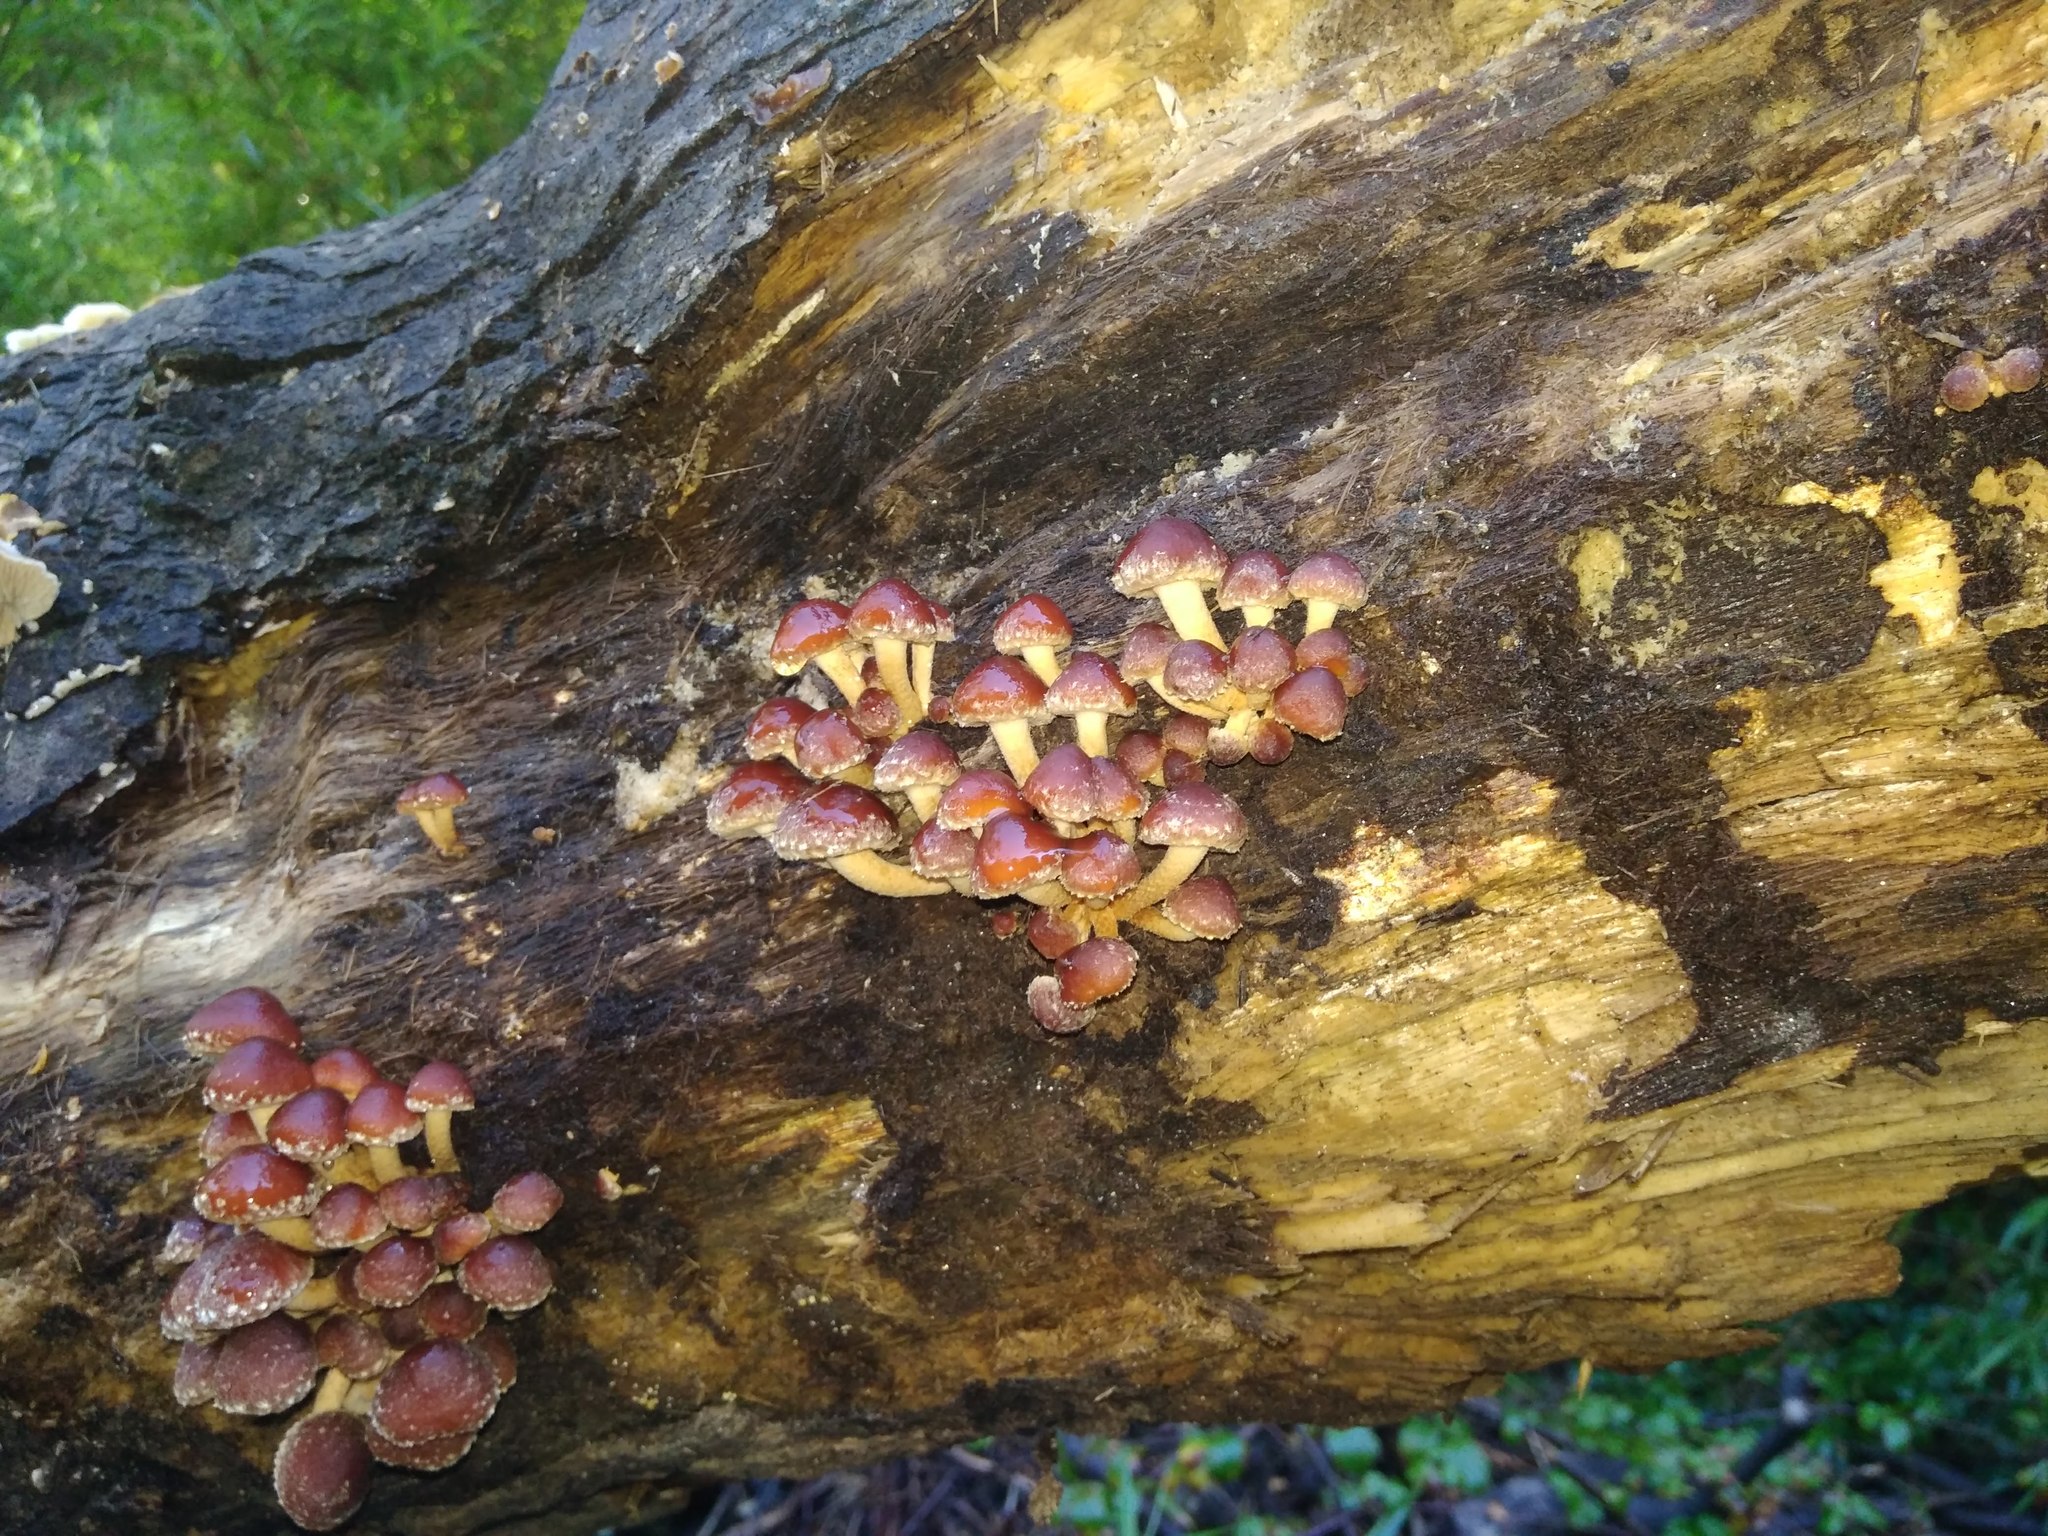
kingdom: Fungi
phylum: Basidiomycota
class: Agaricomycetes
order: Agaricales
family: Strophariaceae
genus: Hypholoma
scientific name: Hypholoma frowardii
